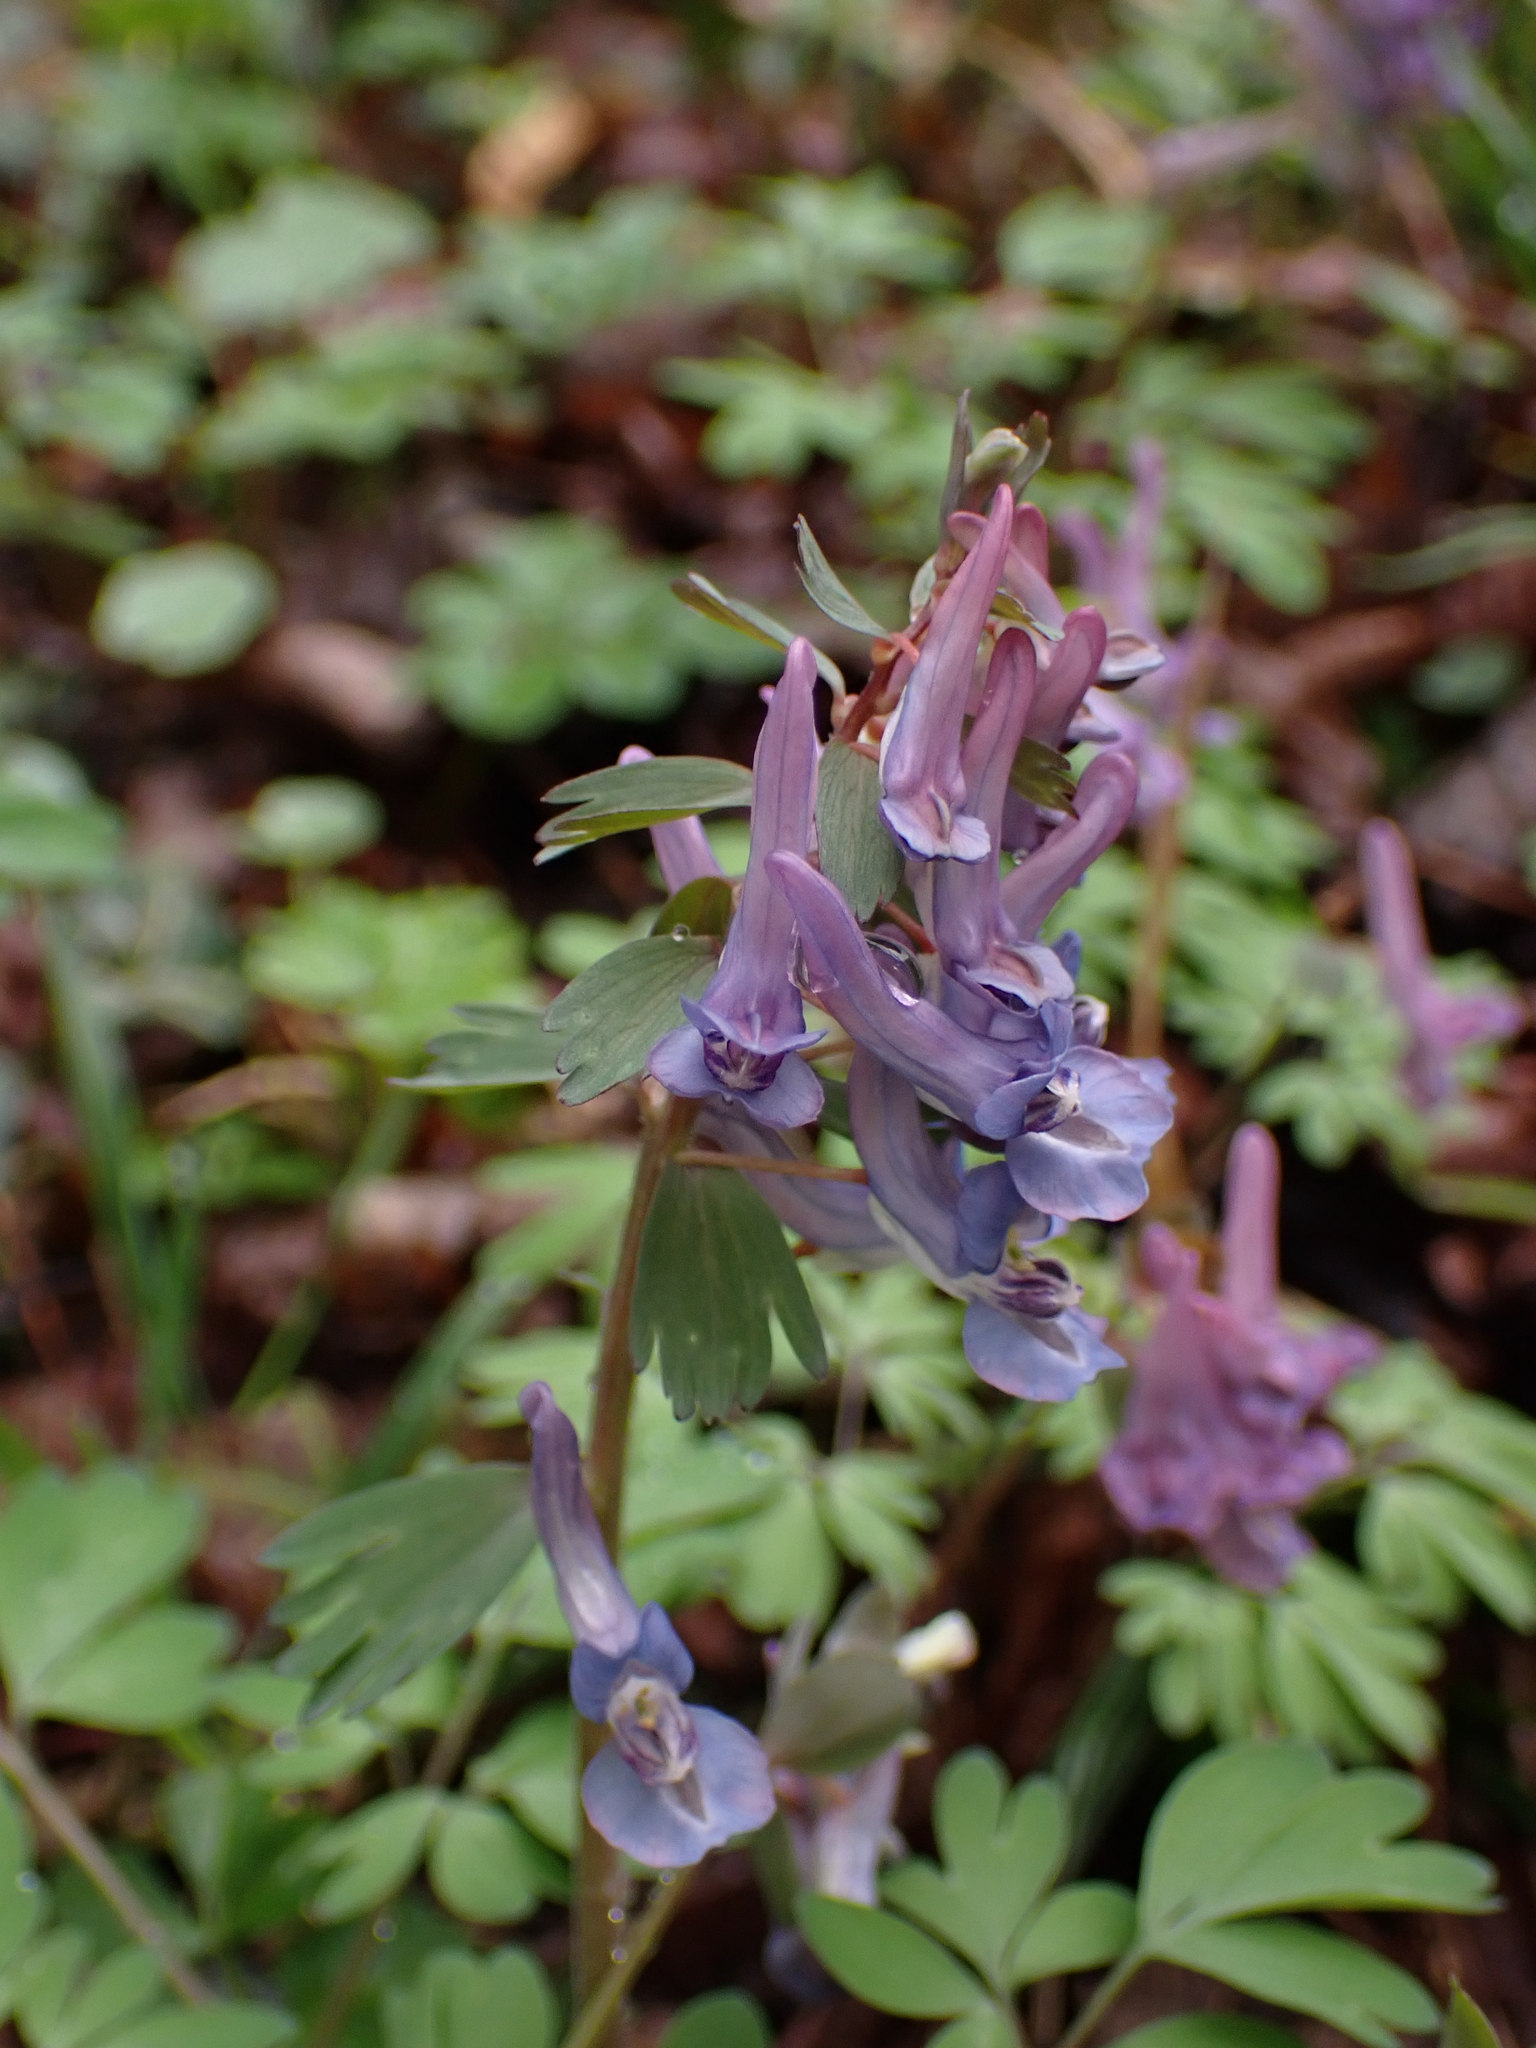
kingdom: Plantae
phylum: Tracheophyta
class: Magnoliopsida
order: Ranunculales
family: Papaveraceae
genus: Corydalis
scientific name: Corydalis solida
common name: Bird-in-a-bush
